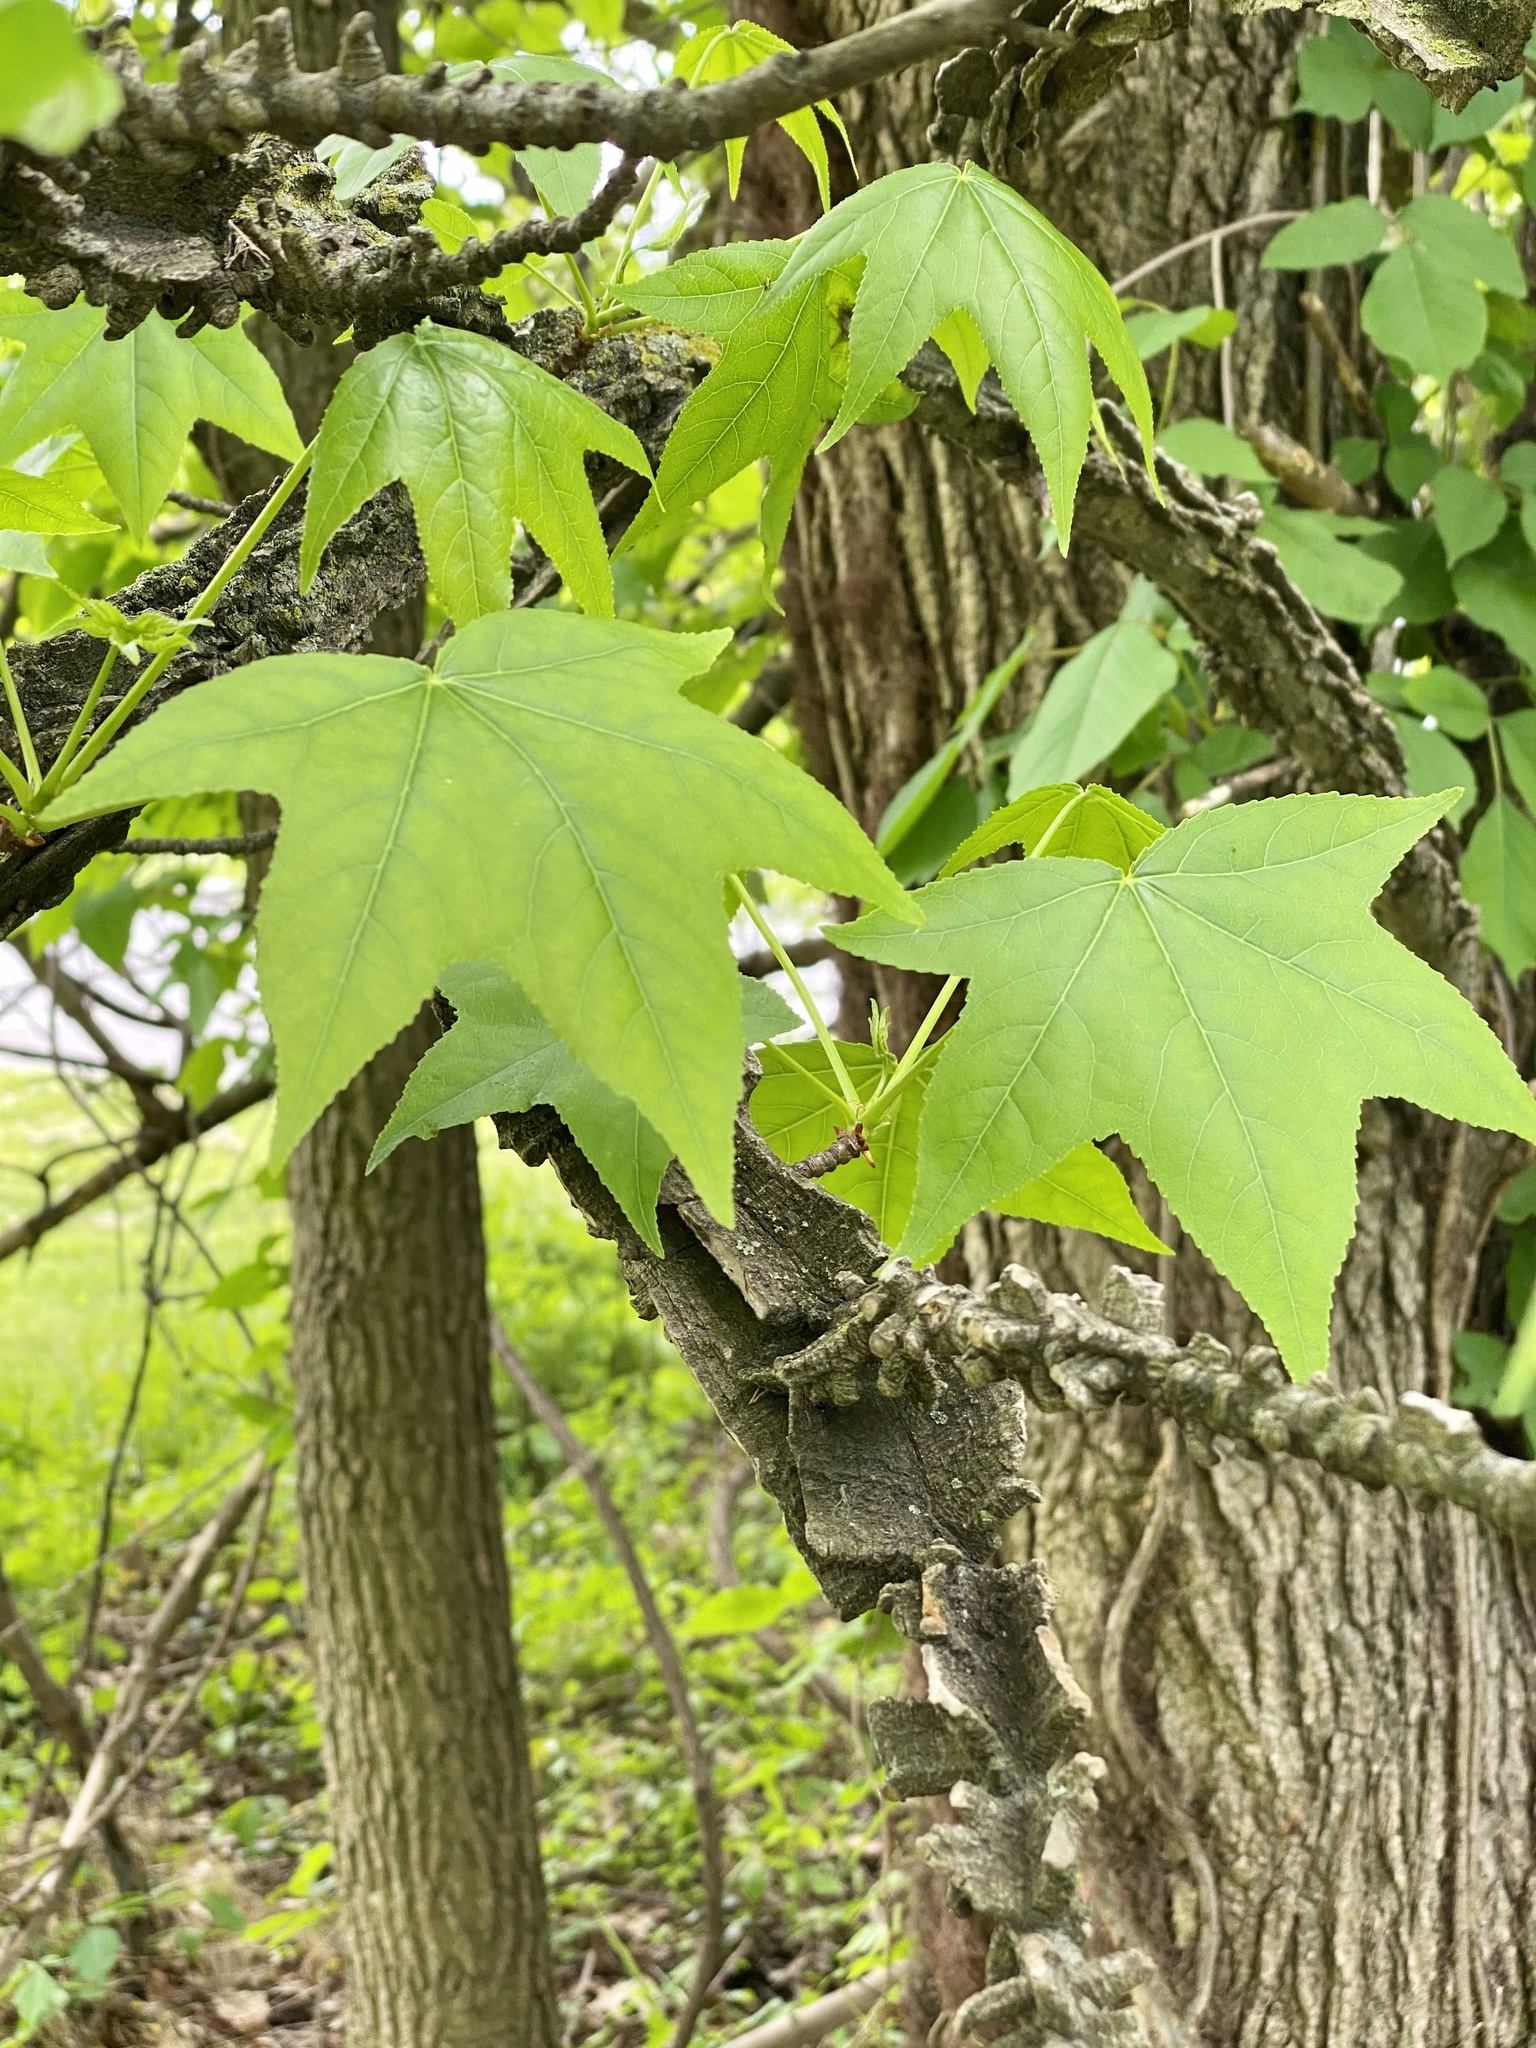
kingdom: Plantae
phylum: Tracheophyta
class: Magnoliopsida
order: Saxifragales
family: Altingiaceae
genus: Liquidambar
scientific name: Liquidambar styraciflua
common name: Sweet gum
